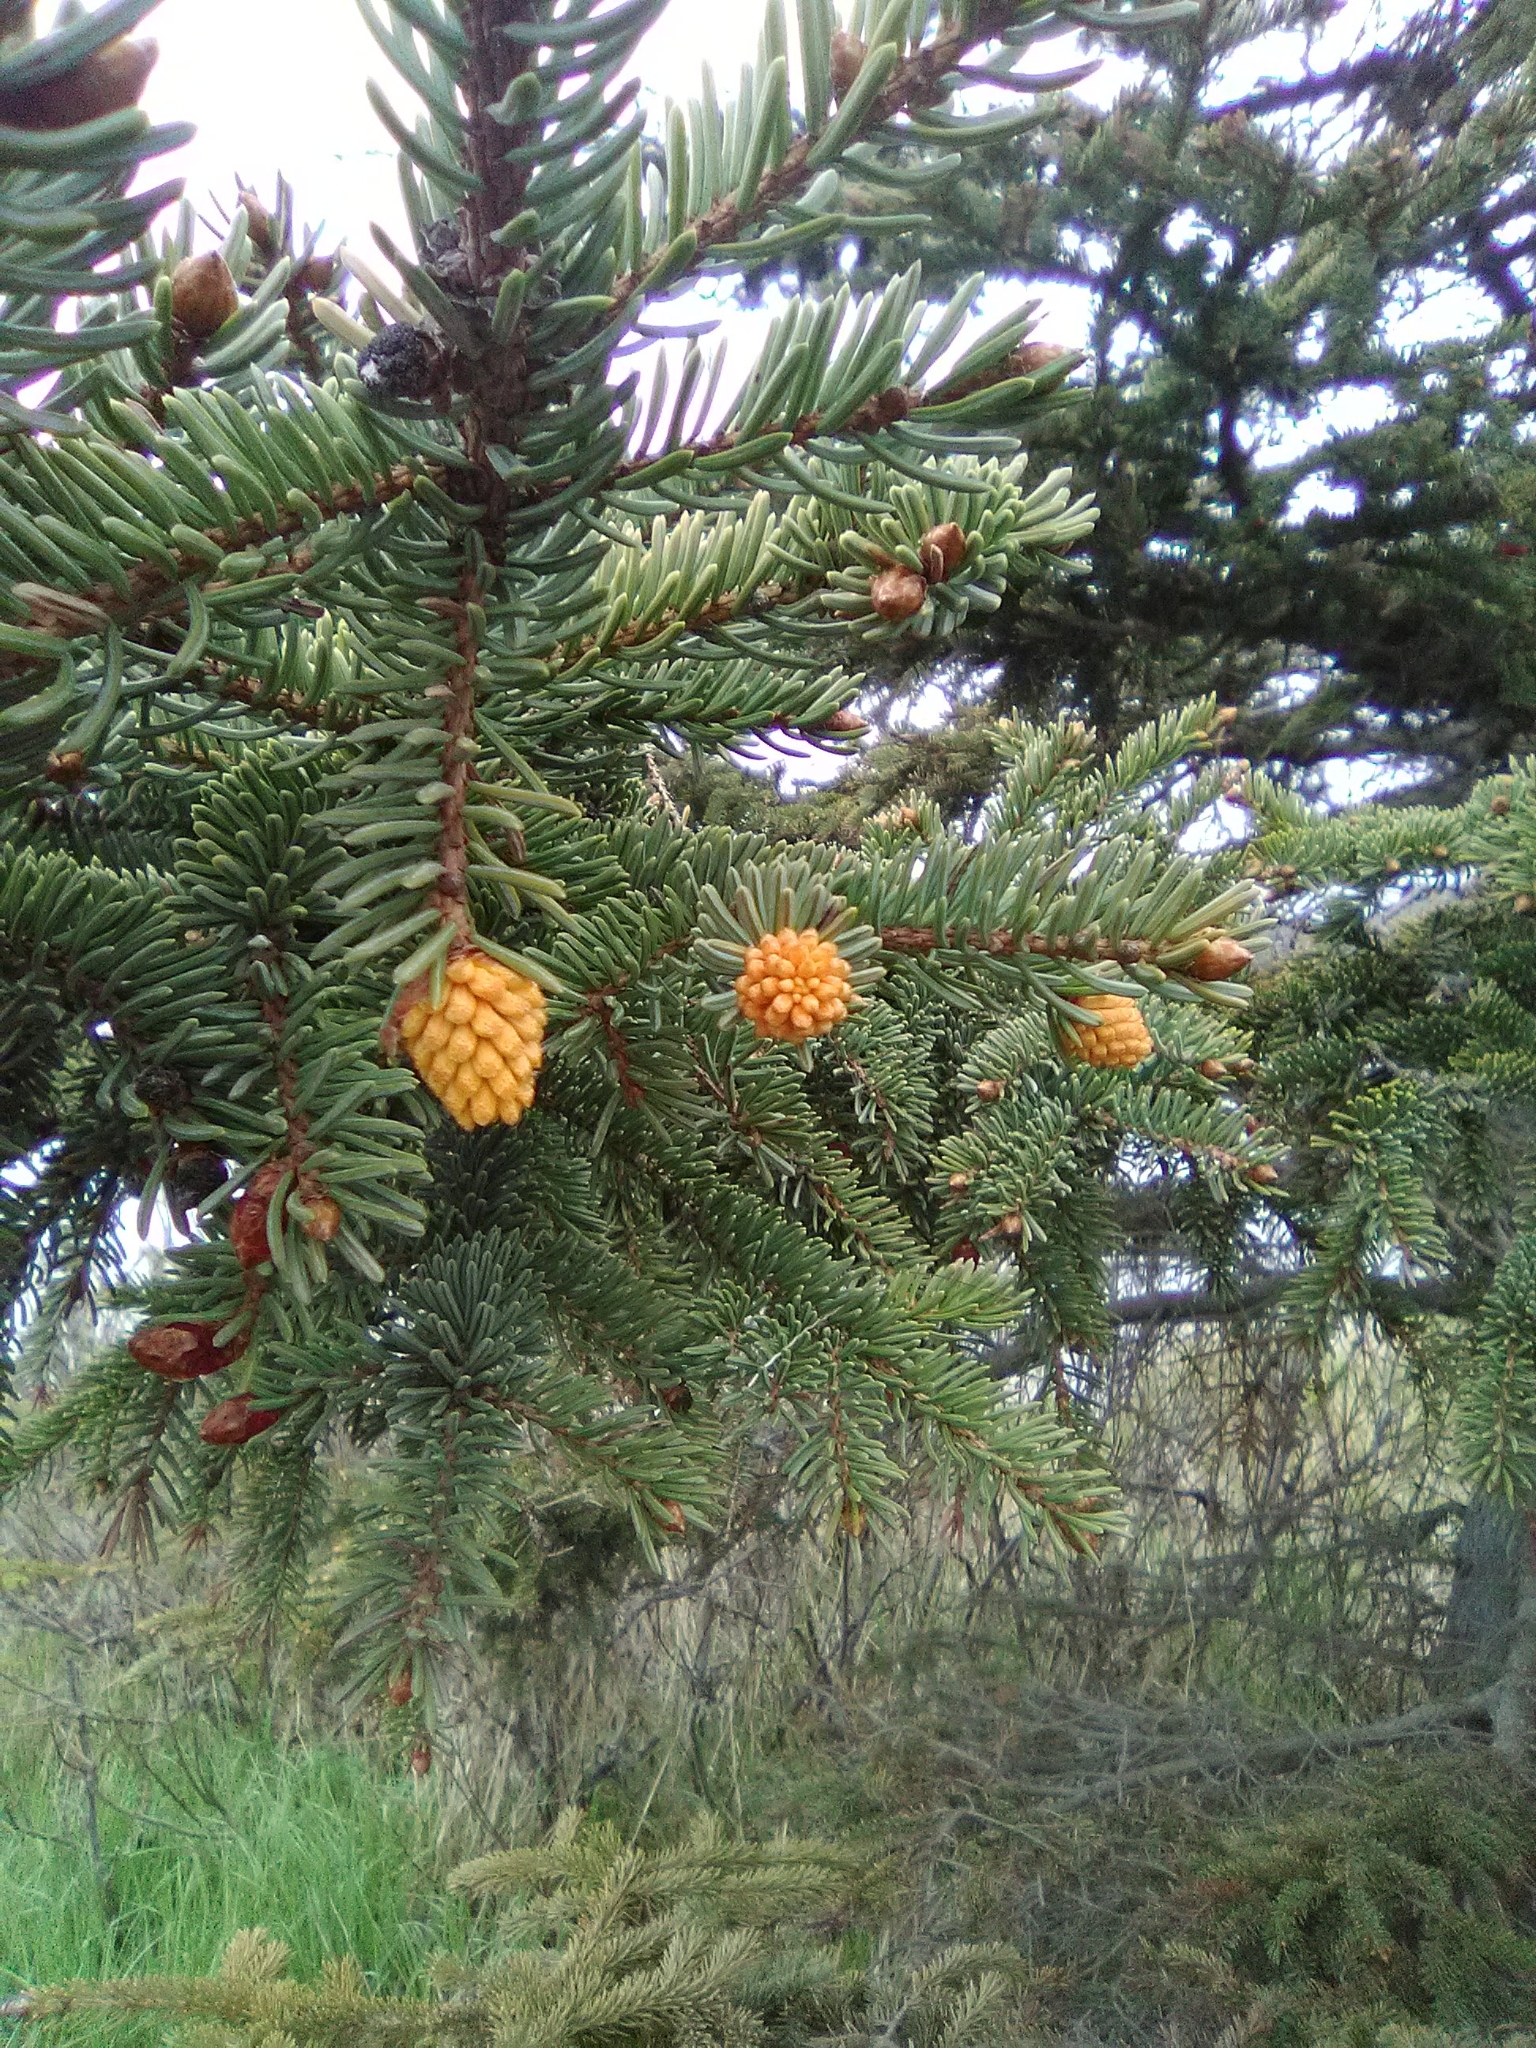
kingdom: Fungi
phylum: Basidiomycota
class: Pucciniomycetes
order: Pucciniales
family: Coleosporiaceae
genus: Chrysomyxa
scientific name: Chrysomyxa woroninii
